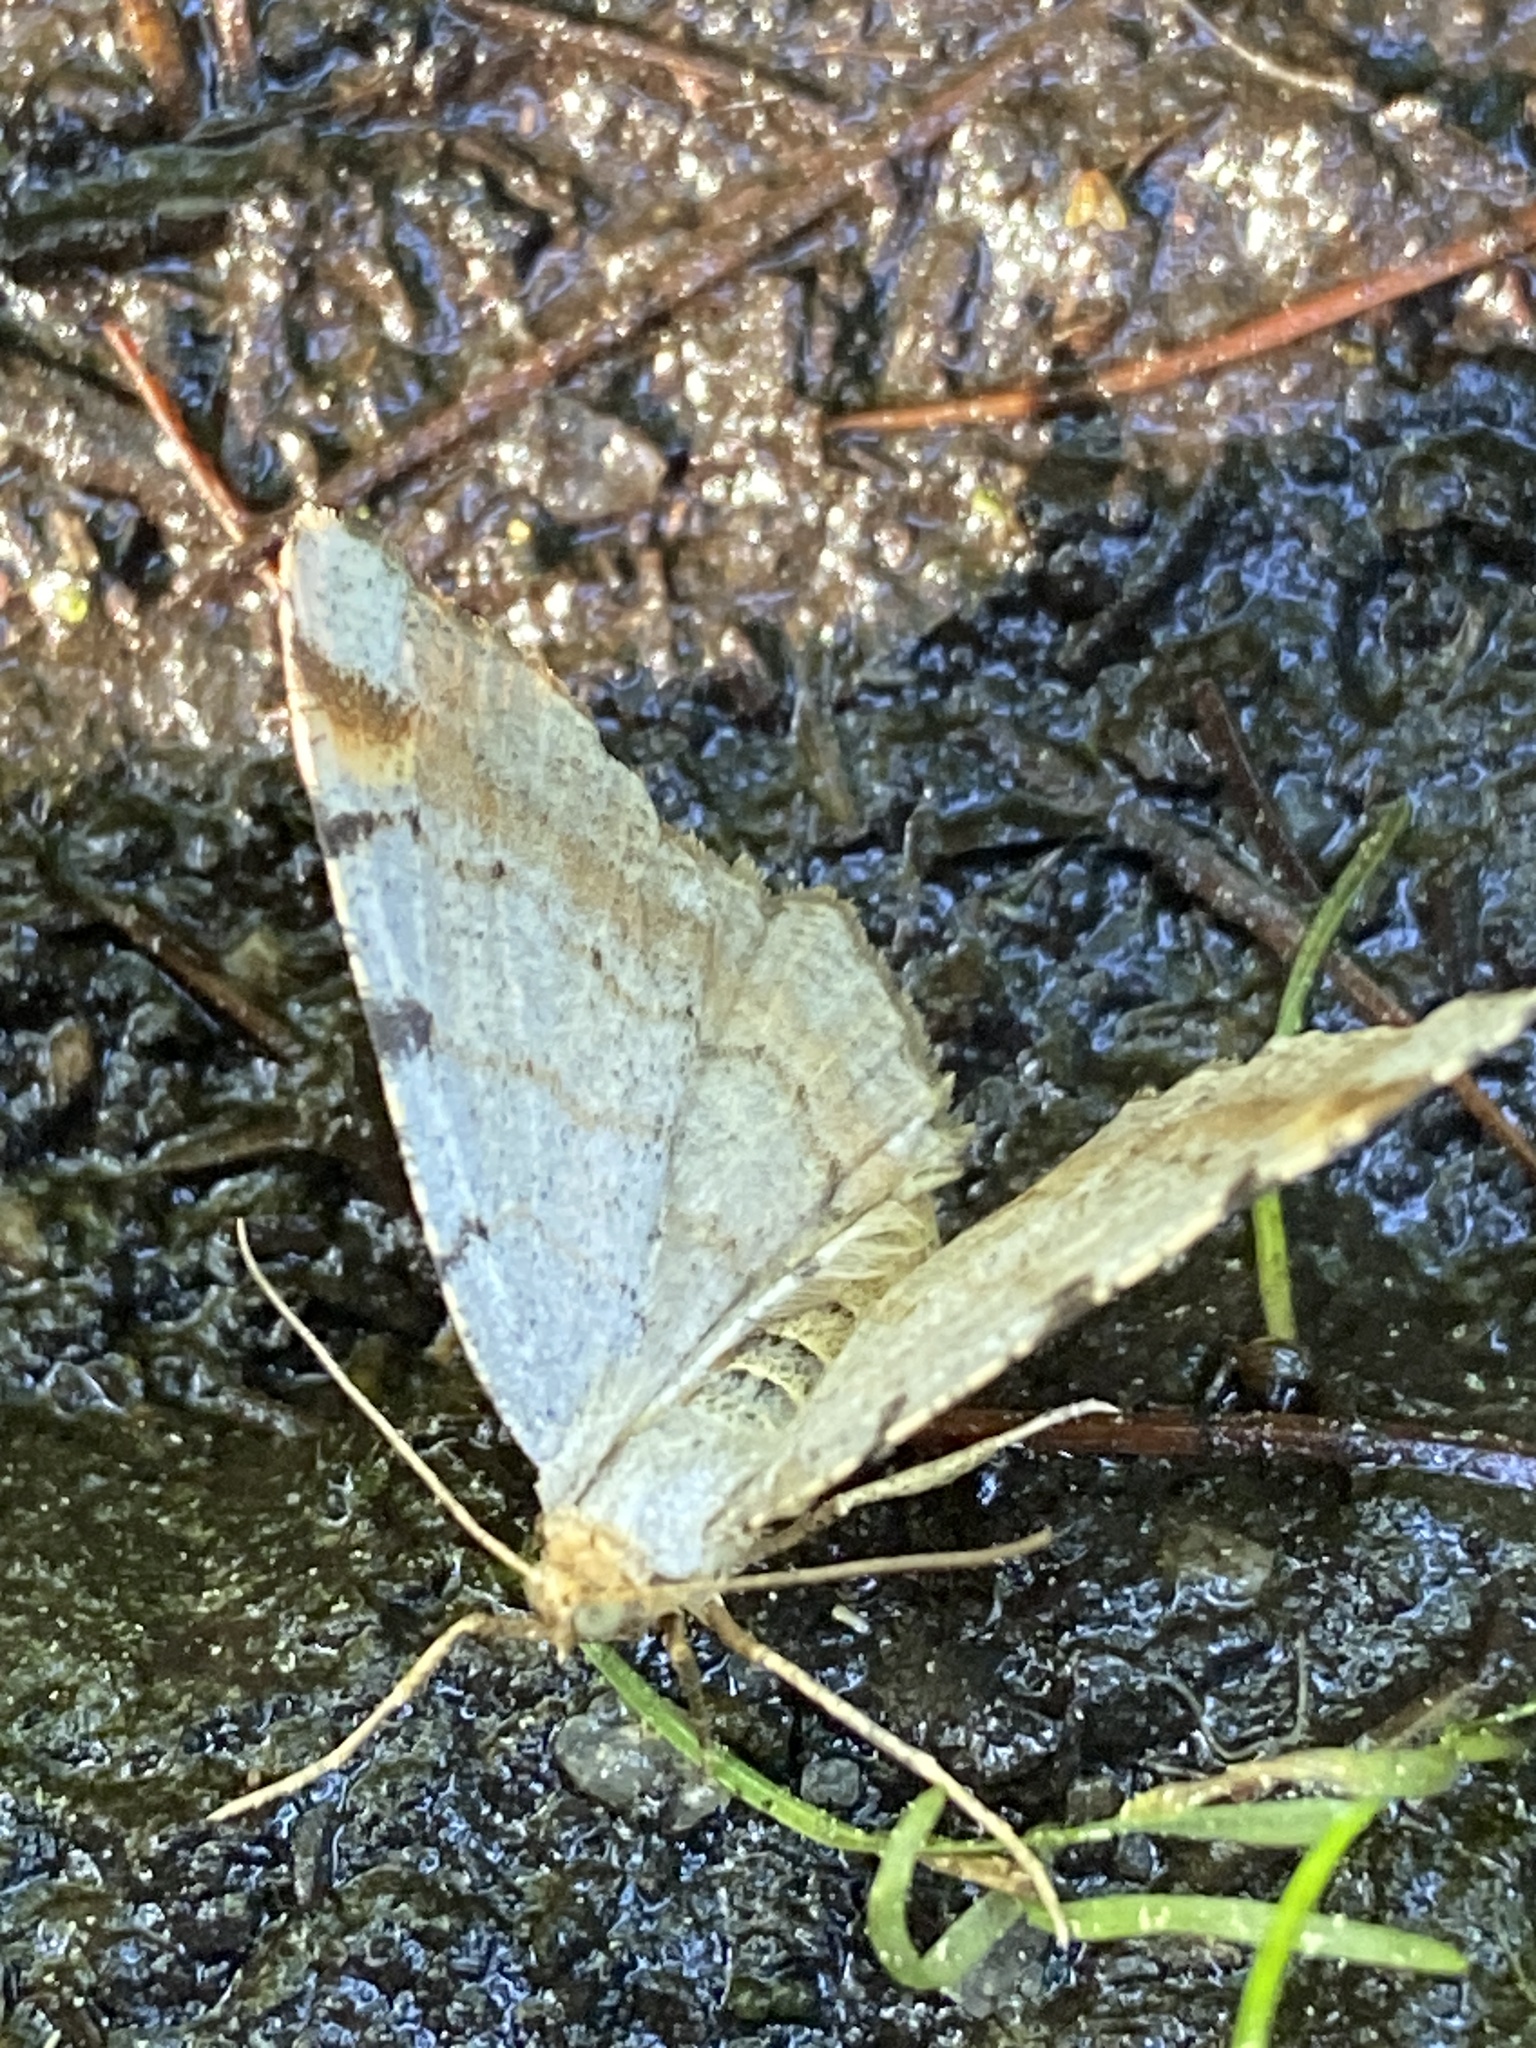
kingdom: Animalia
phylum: Arthropoda
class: Insecta
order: Lepidoptera
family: Geometridae
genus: Macaria
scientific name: Macaria liturata
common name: Tawny-barred angle
